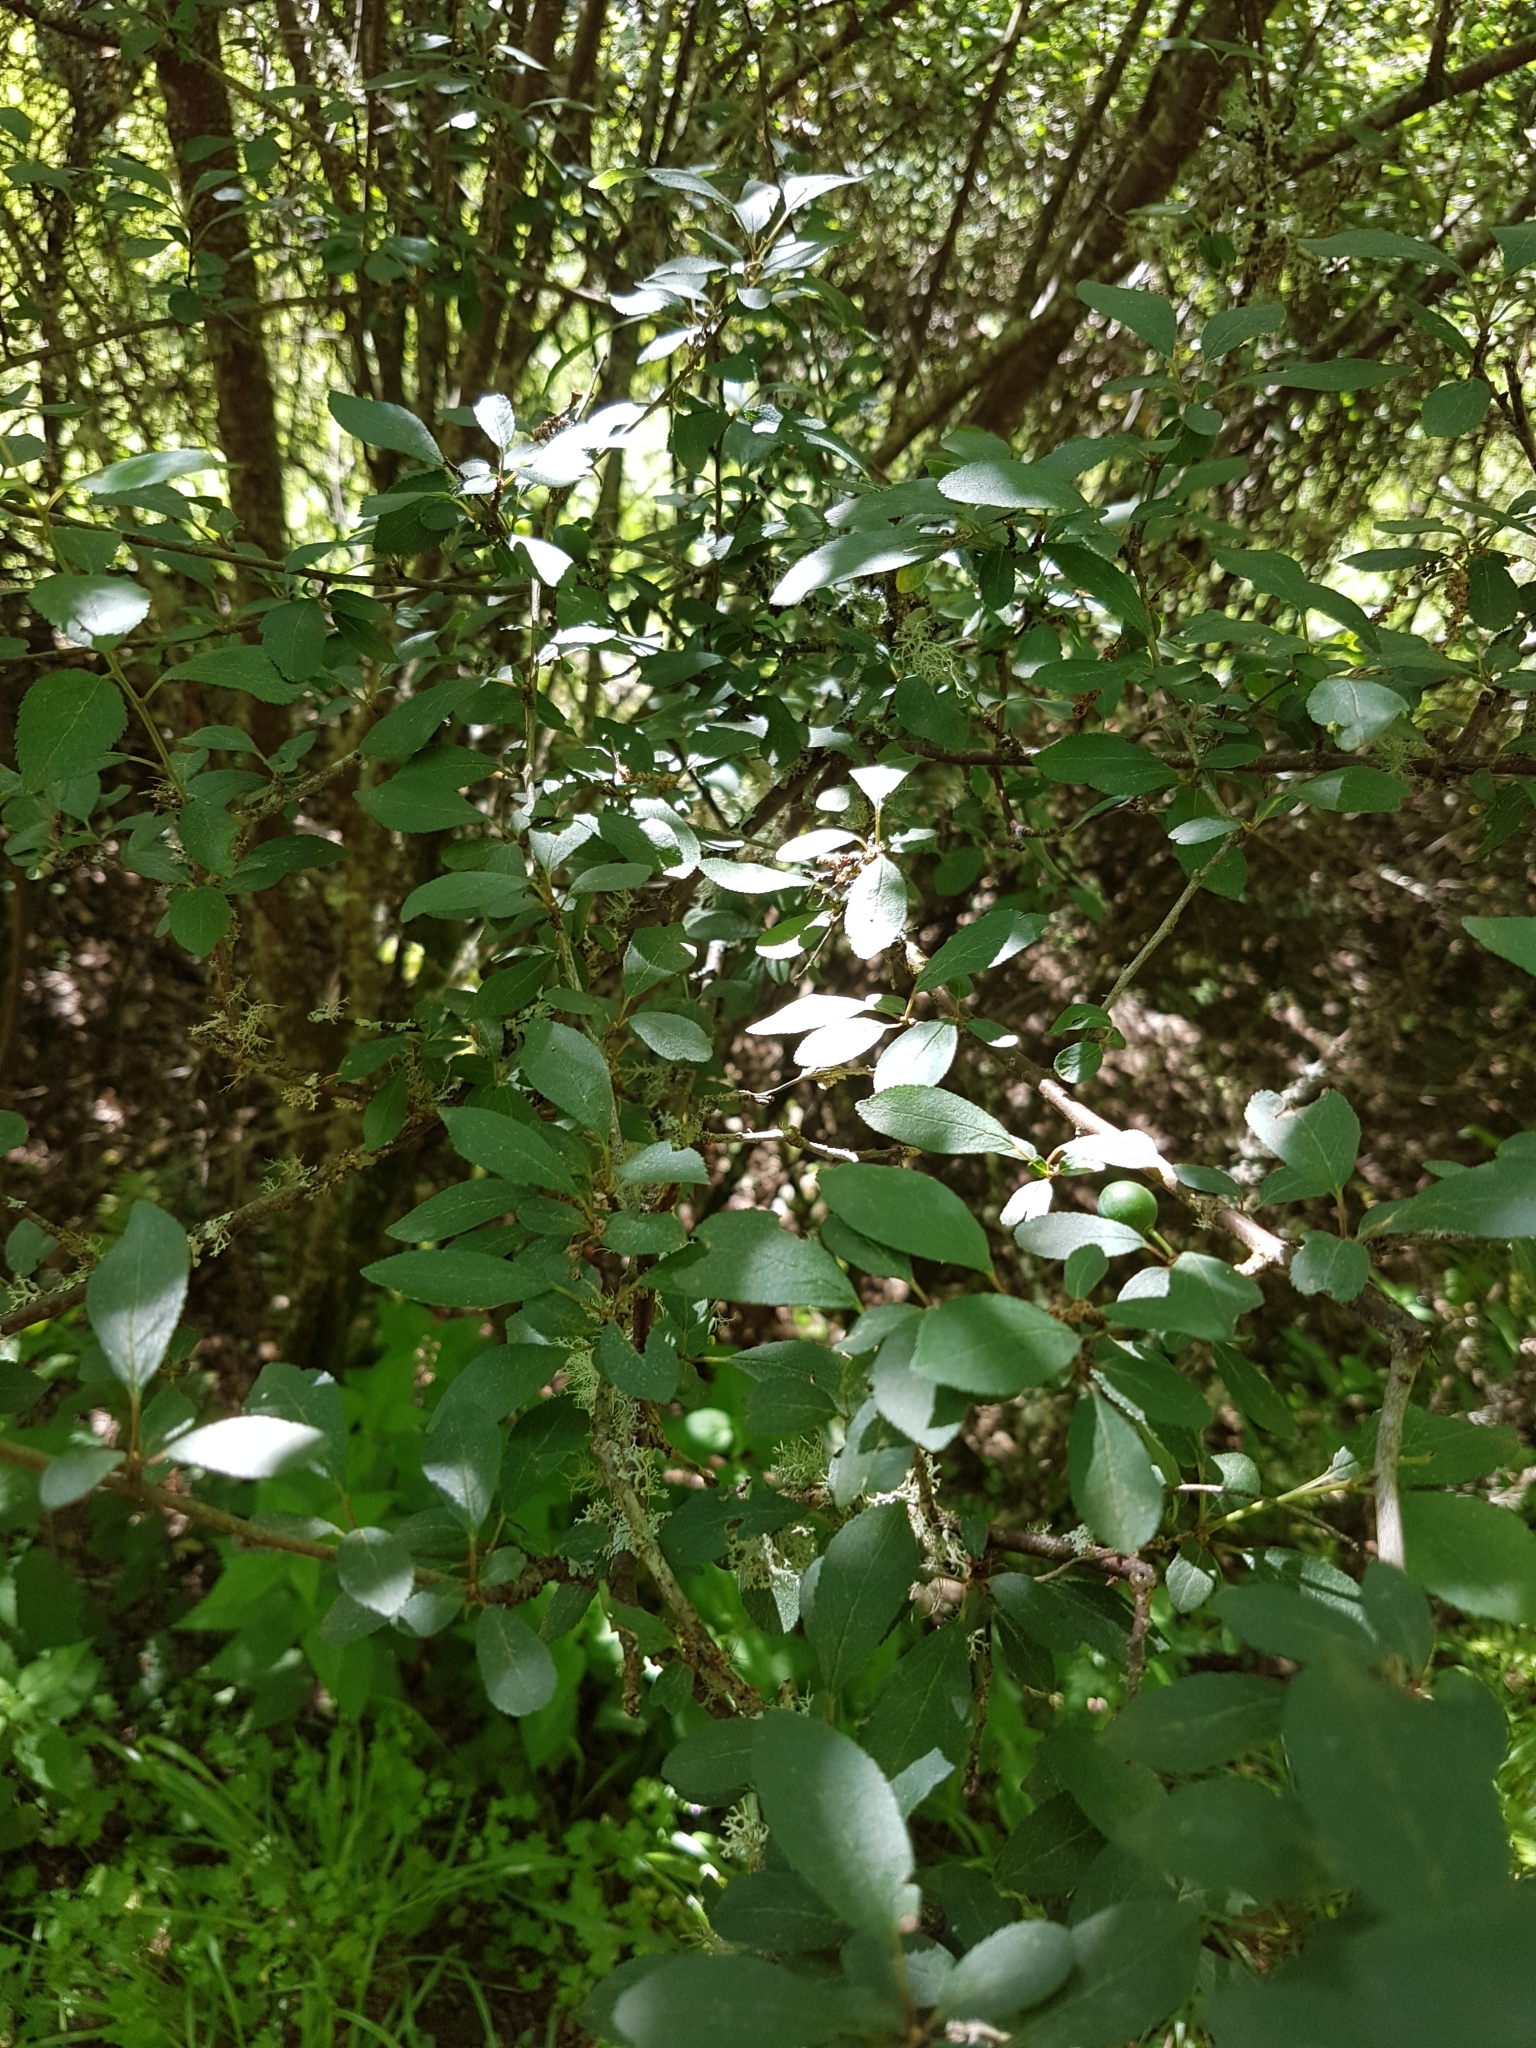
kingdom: Plantae
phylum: Tracheophyta
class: Magnoliopsida
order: Rosales
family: Rosaceae
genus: Prunus
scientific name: Prunus spinosa
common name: Blackthorn
